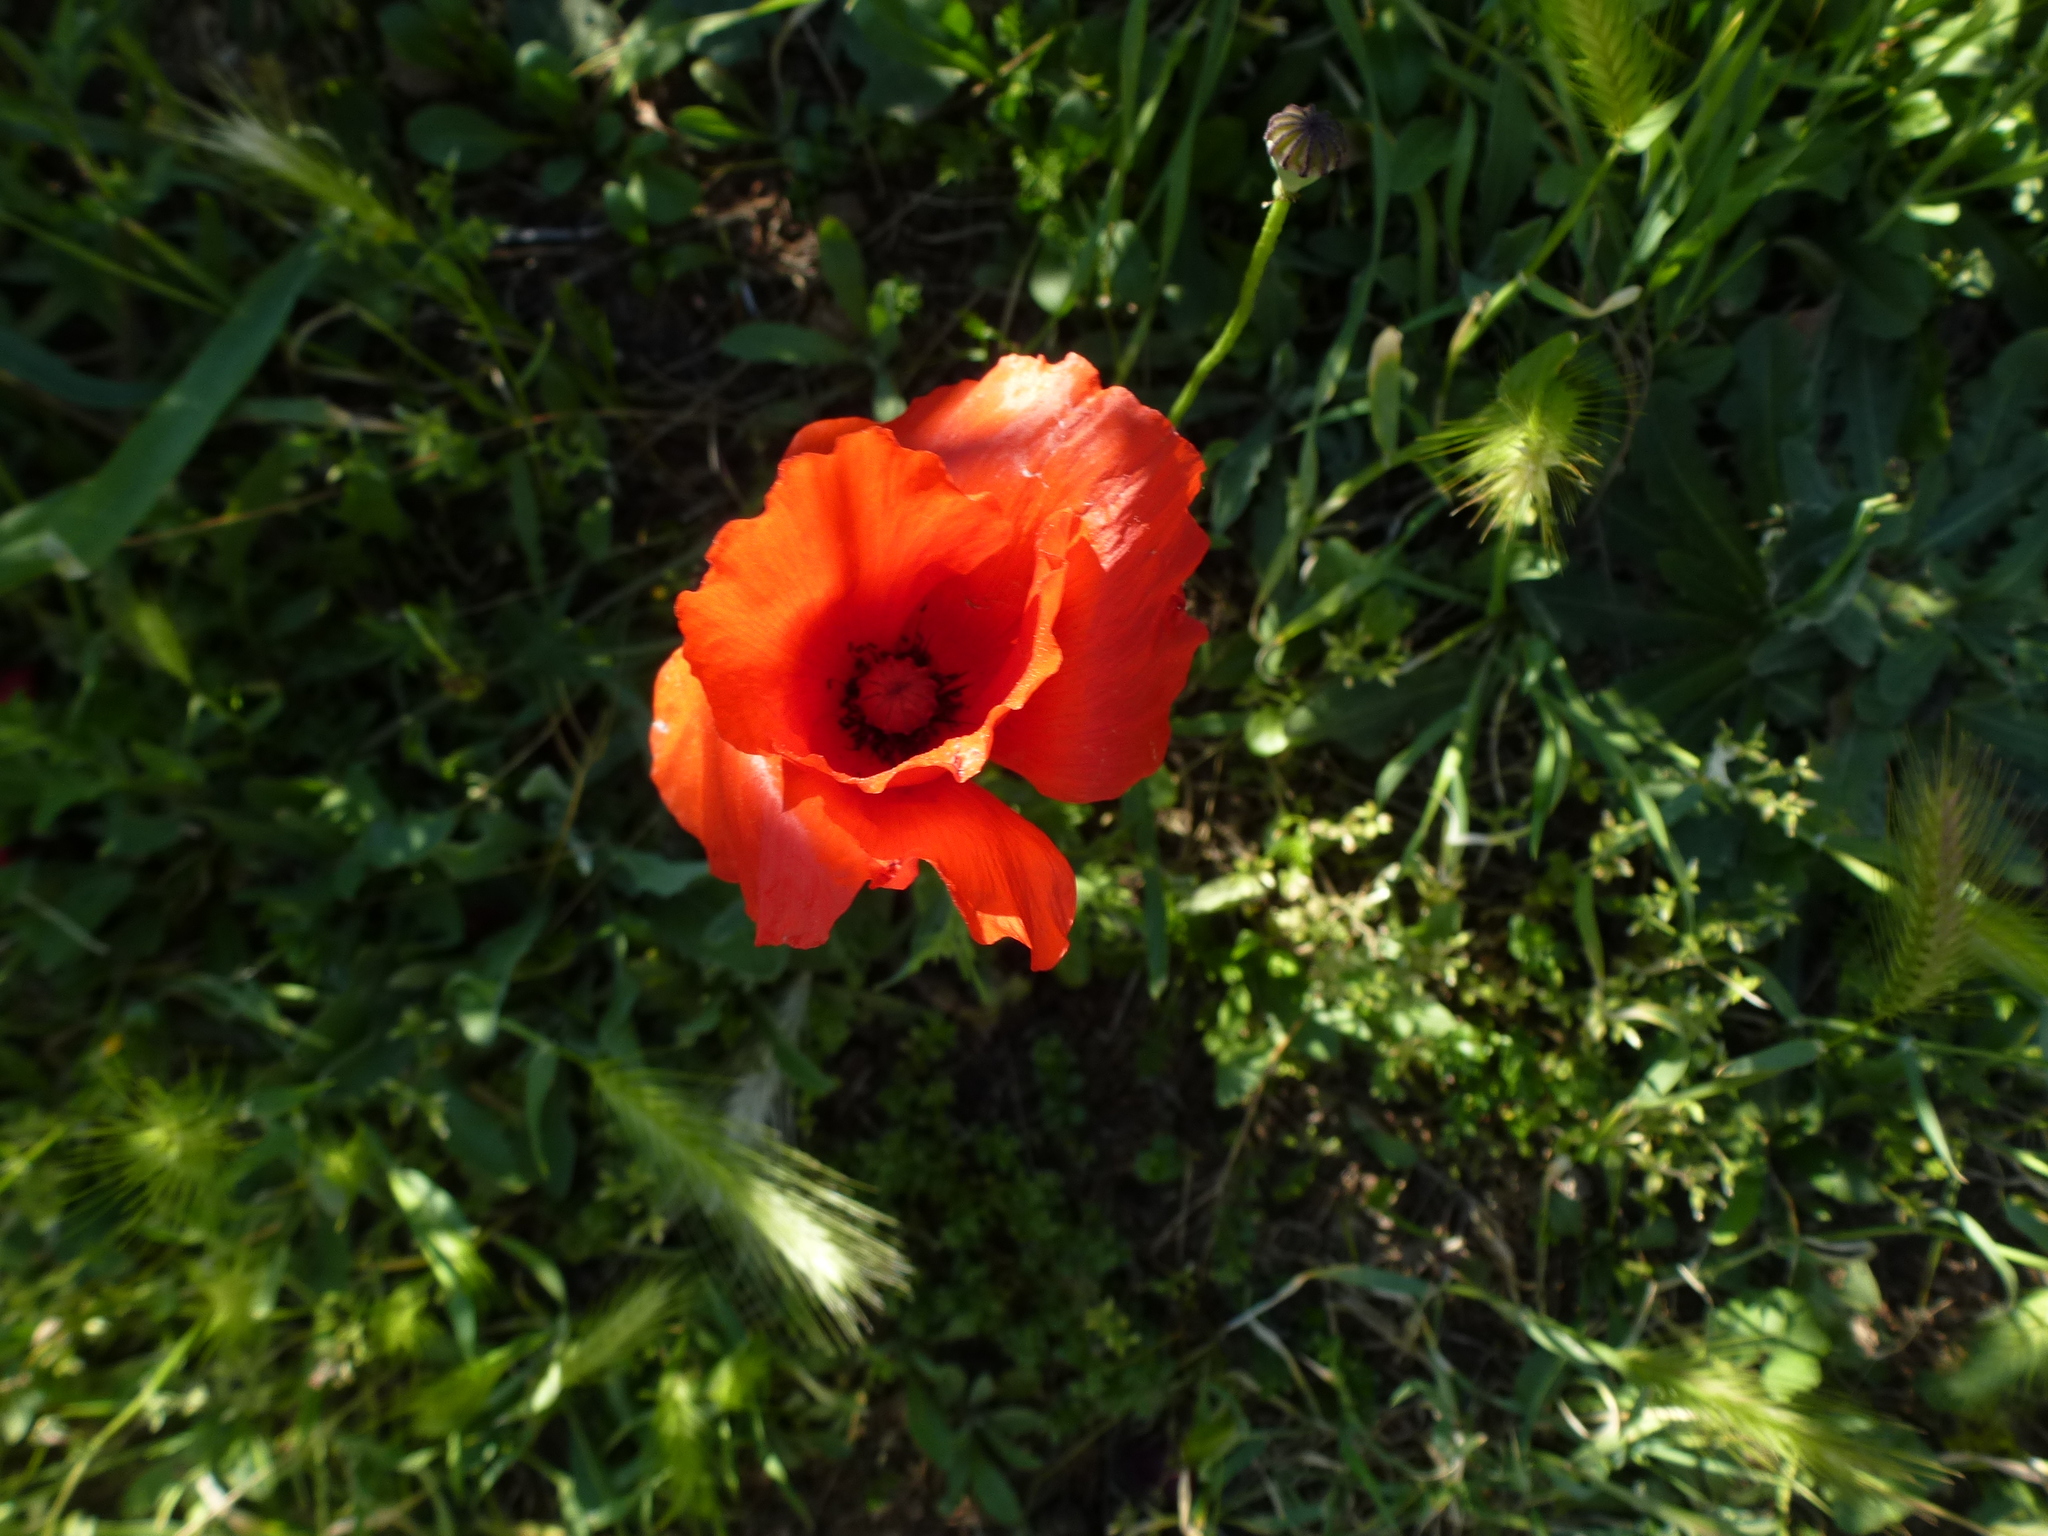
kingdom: Plantae
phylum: Tracheophyta
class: Magnoliopsida
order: Ranunculales
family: Papaveraceae
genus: Papaver
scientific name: Papaver rhoeas
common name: Corn poppy
